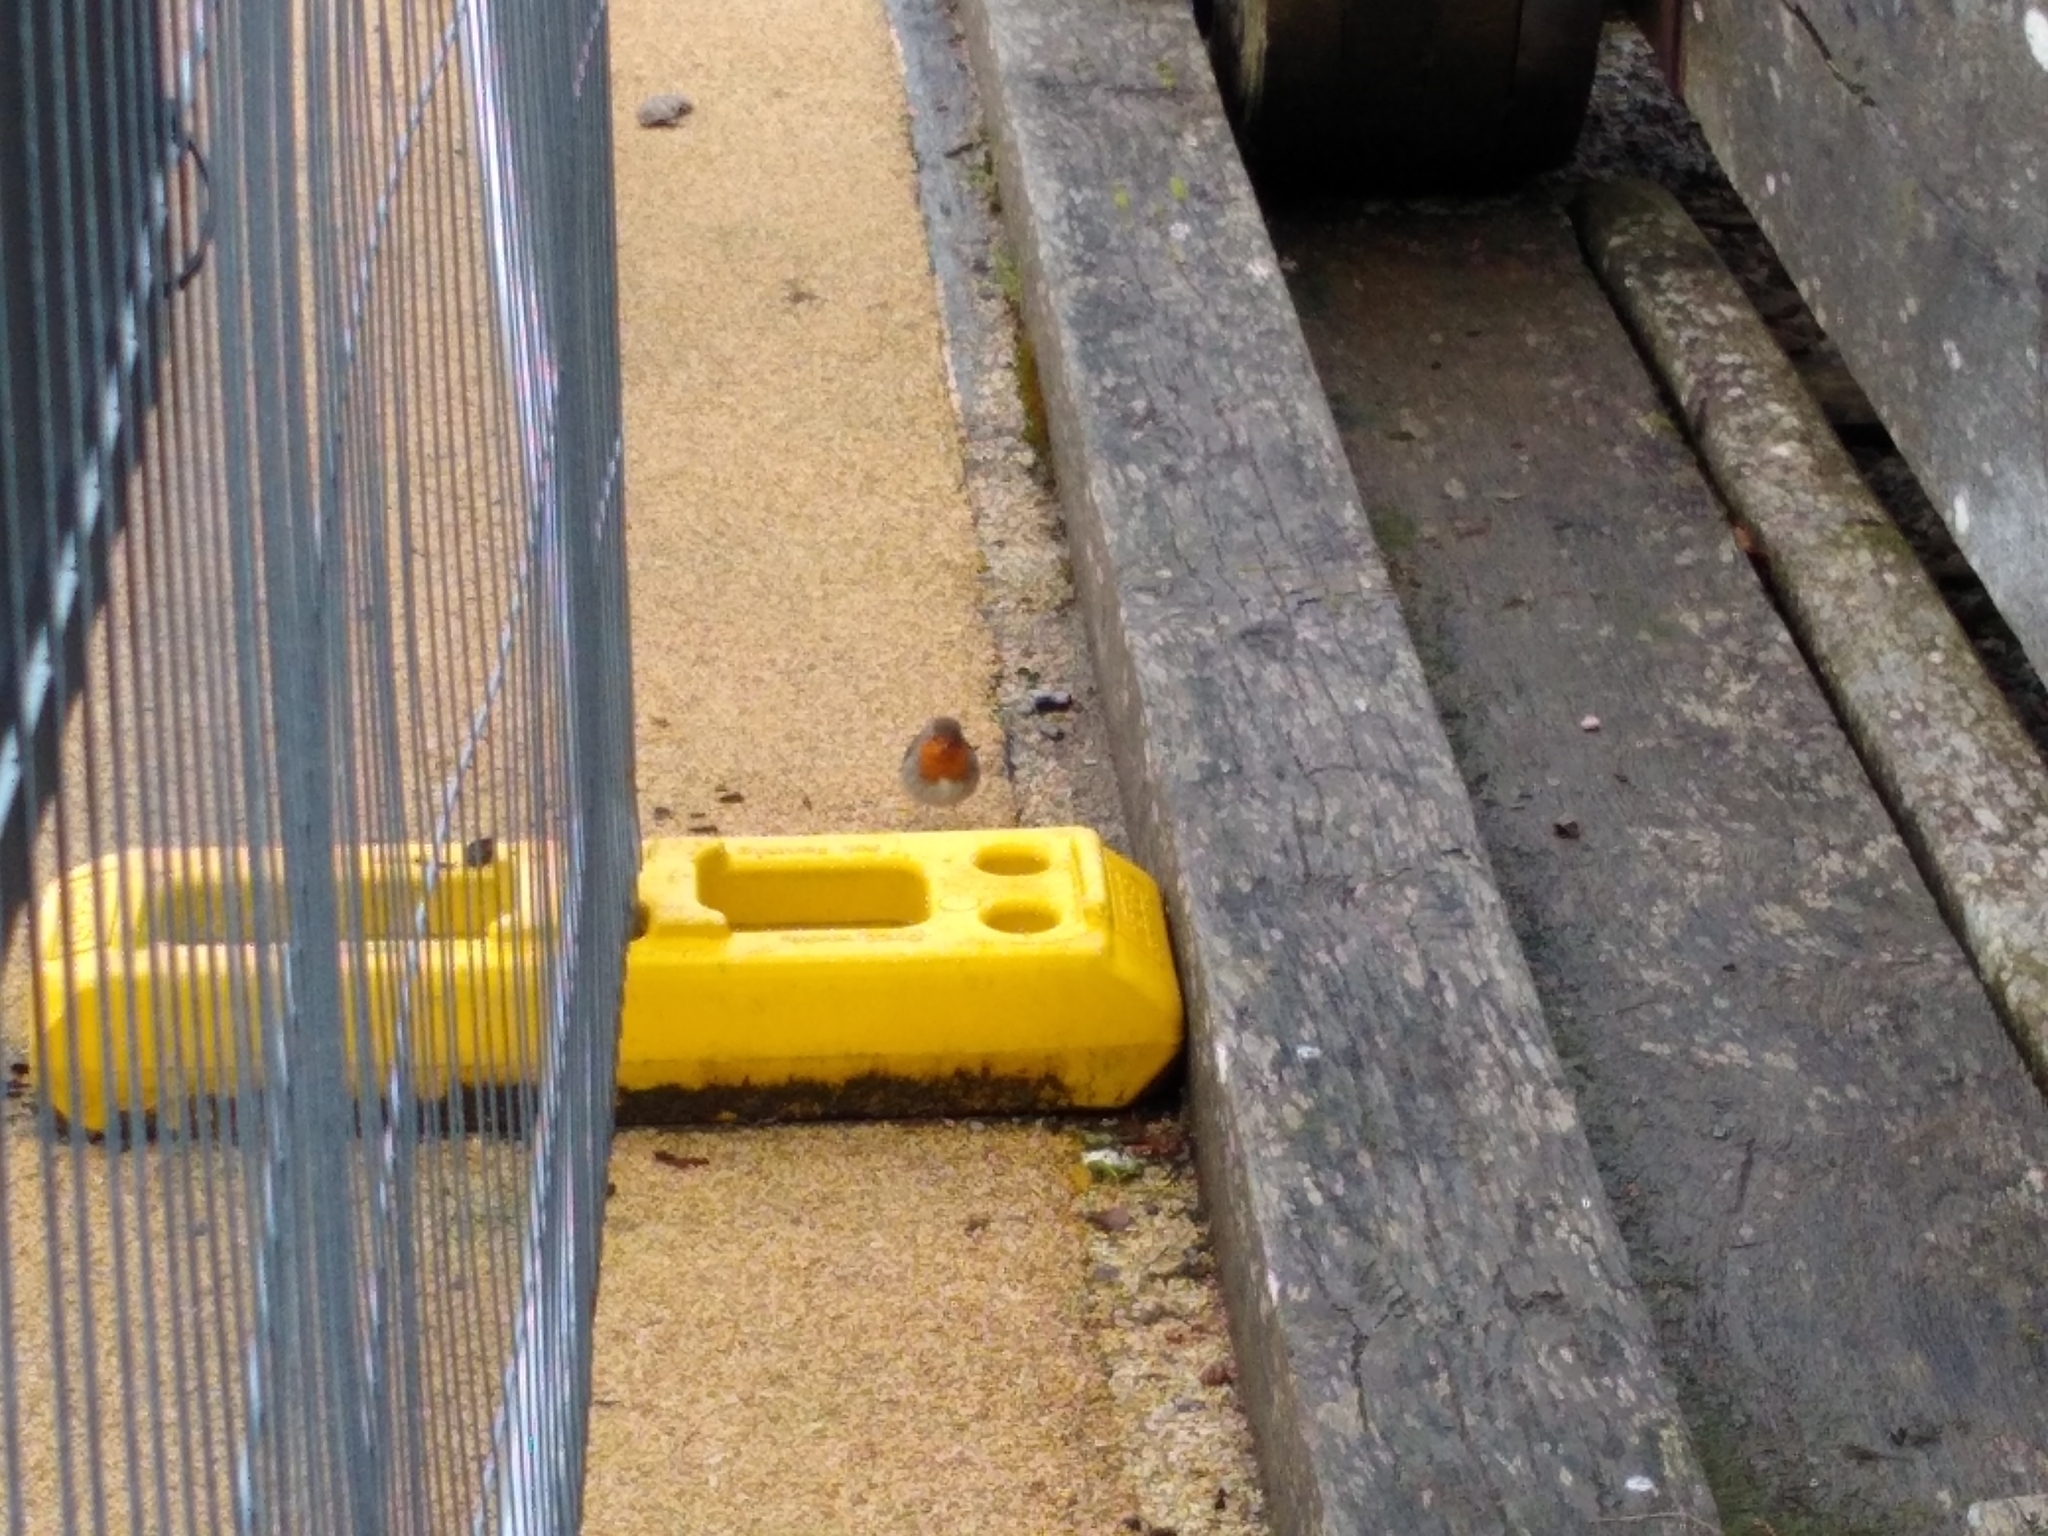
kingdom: Animalia
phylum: Chordata
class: Aves
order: Passeriformes
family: Muscicapidae
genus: Erithacus
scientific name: Erithacus rubecula
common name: European robin
